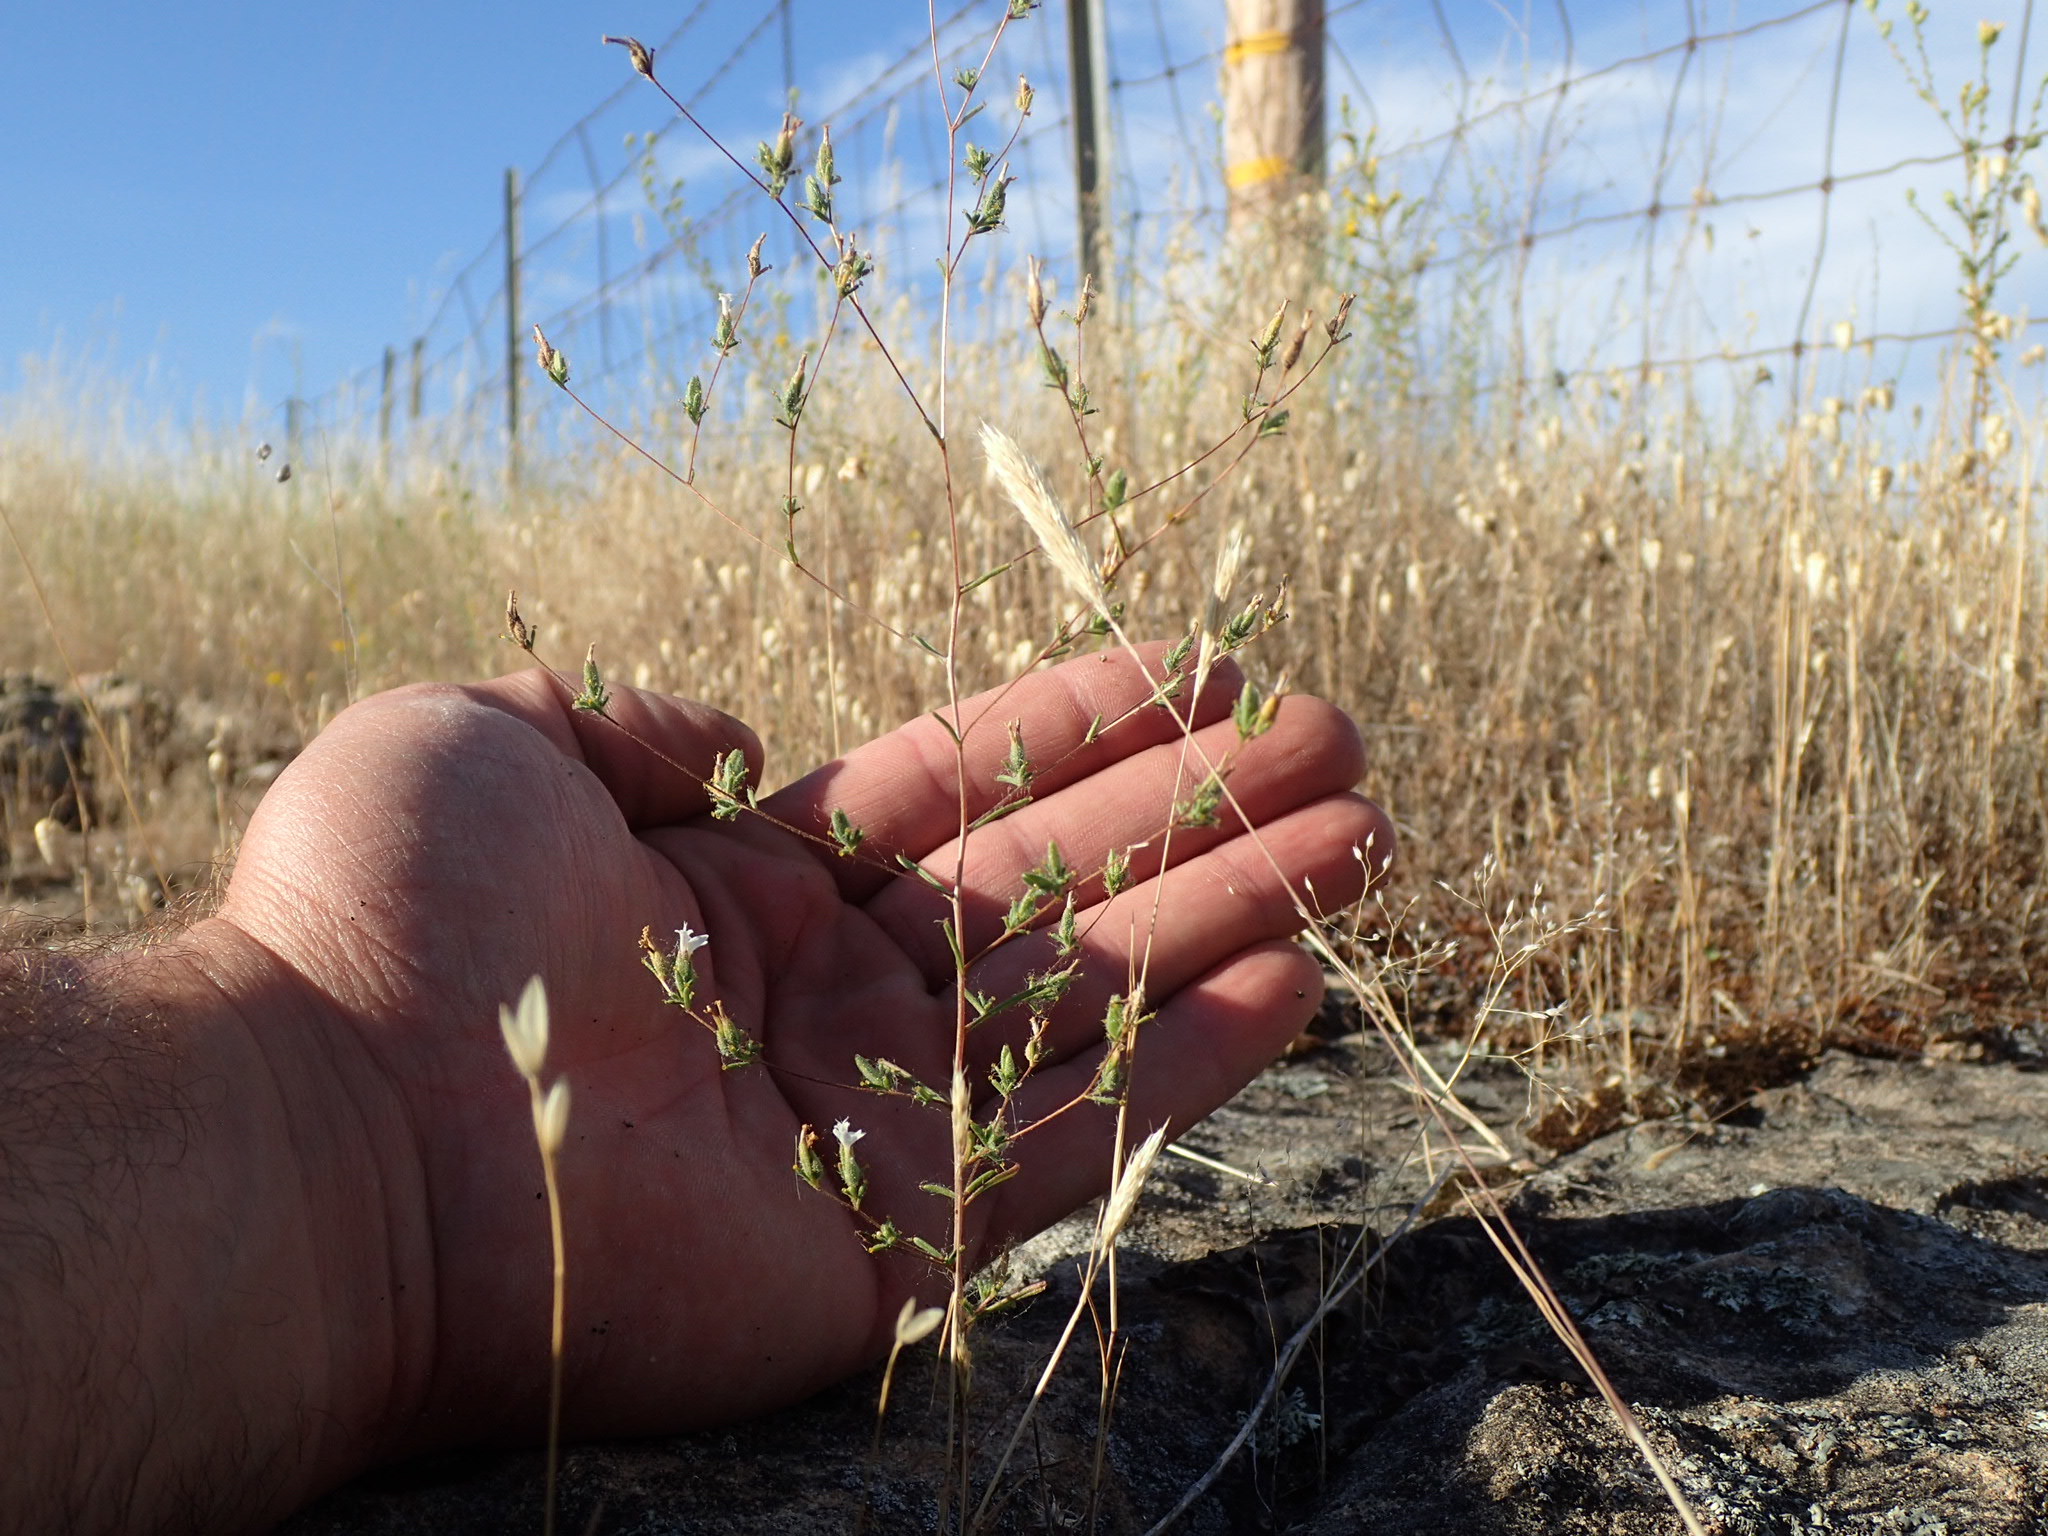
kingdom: Plantae
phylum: Tracheophyta
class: Magnoliopsida
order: Asterales
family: Asteraceae
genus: Calycadenia
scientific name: Calycadenia hooveri
